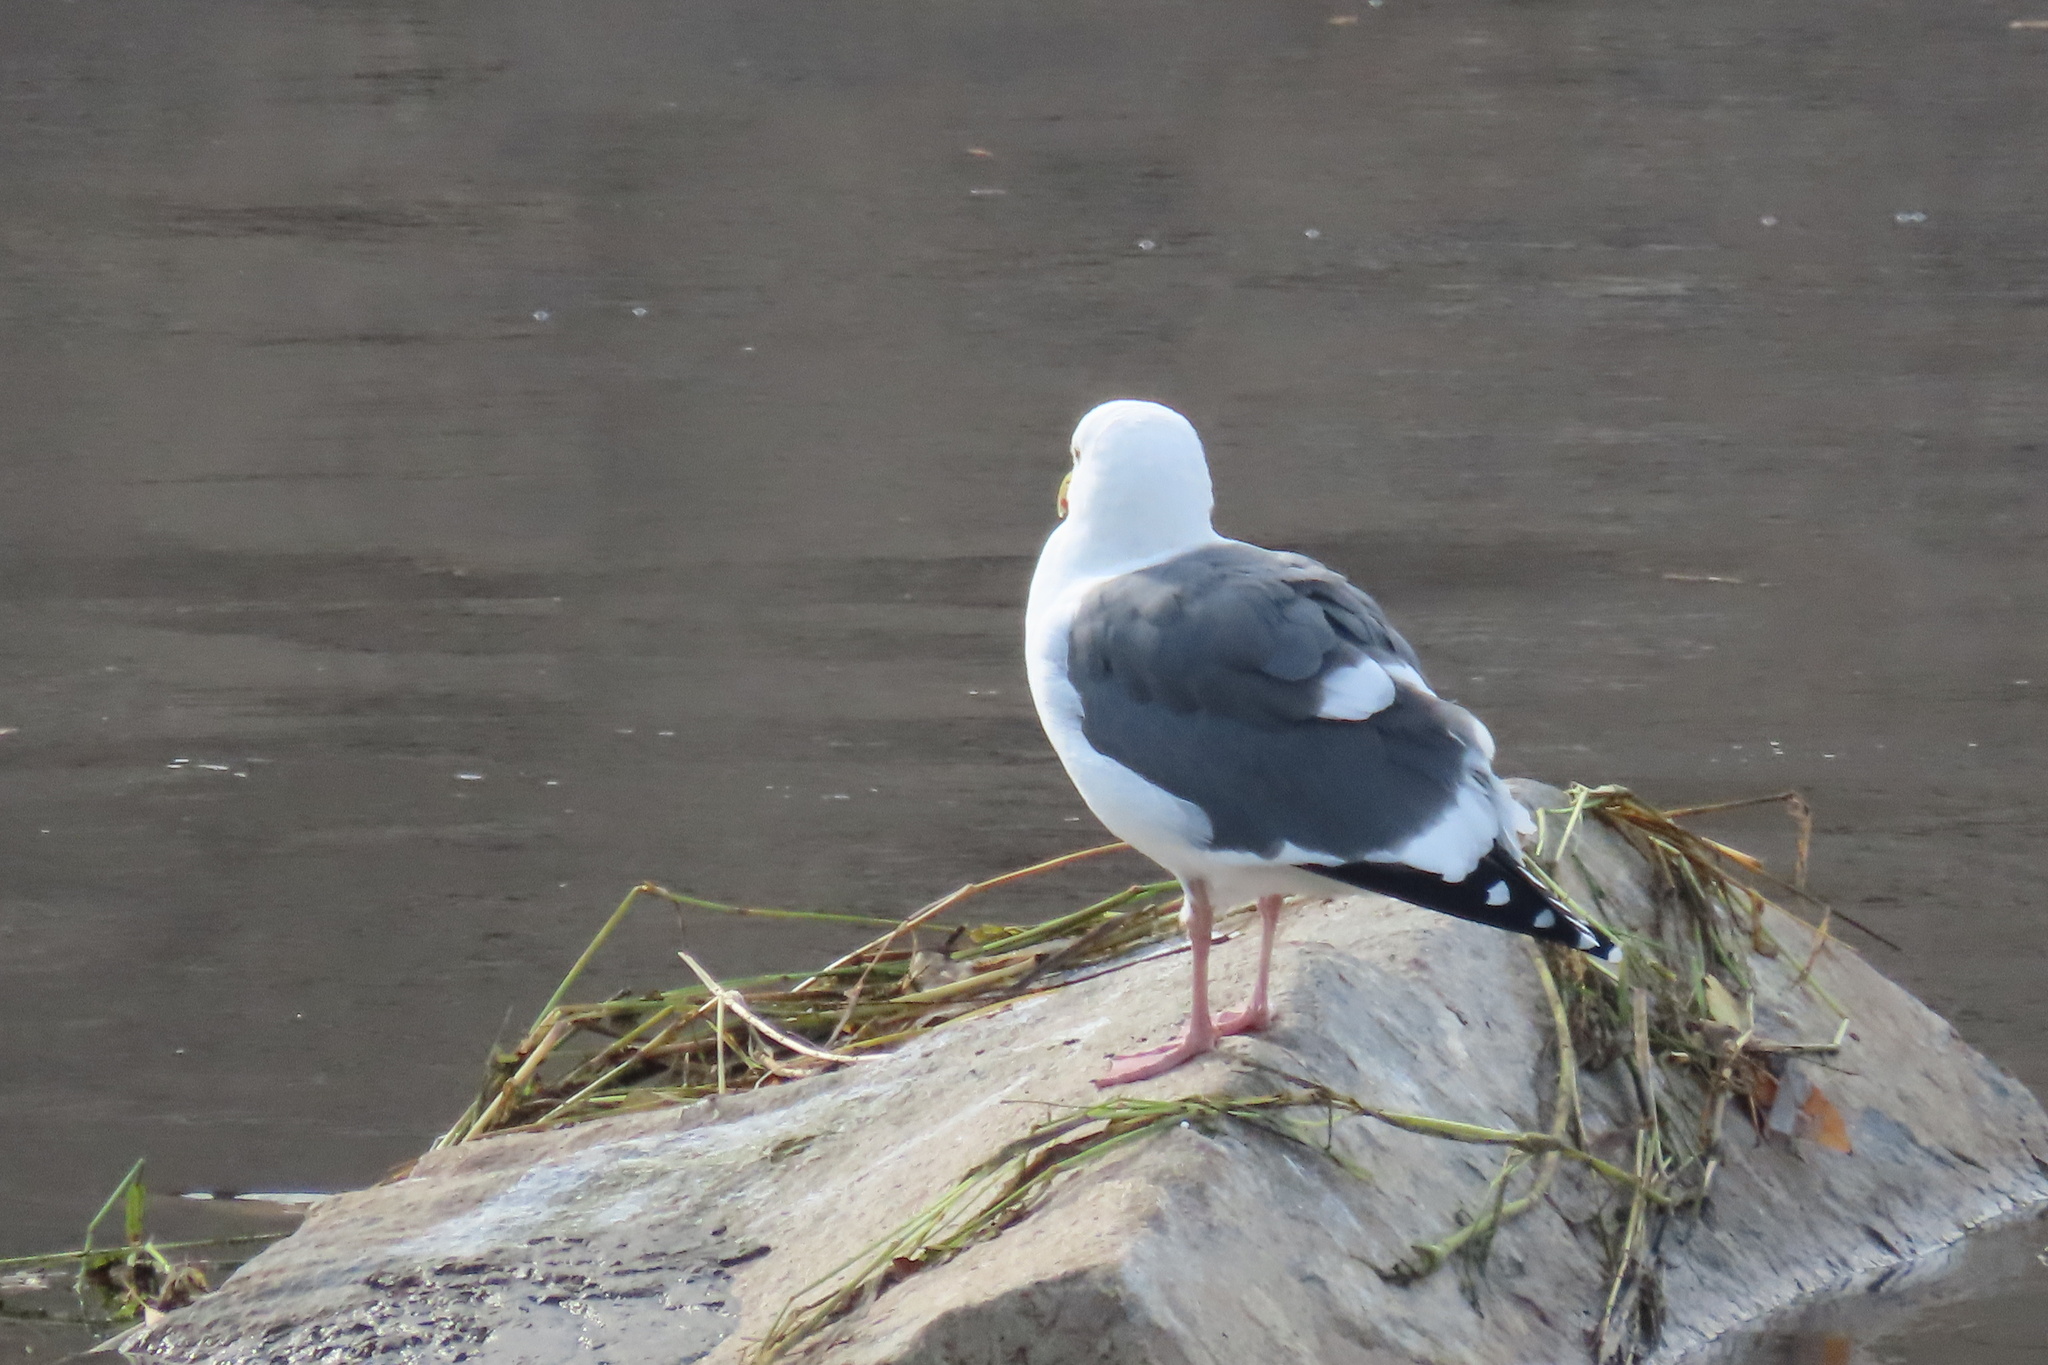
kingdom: Animalia
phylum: Chordata
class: Aves
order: Charadriiformes
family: Laridae
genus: Larus
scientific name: Larus occidentalis
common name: Western gull
